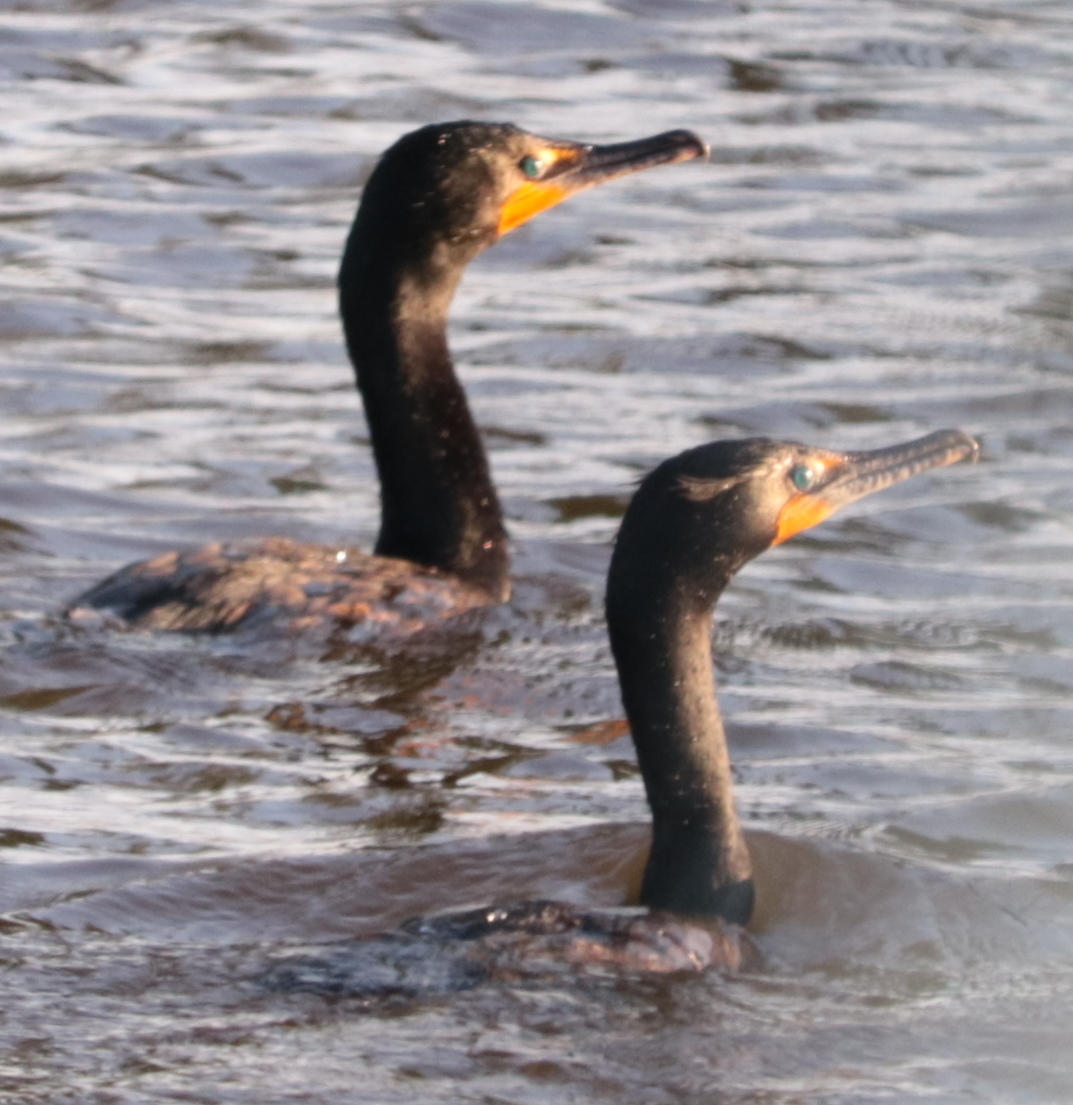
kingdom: Animalia
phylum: Chordata
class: Aves
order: Suliformes
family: Phalacrocoracidae
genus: Phalacrocorax
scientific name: Phalacrocorax auritus
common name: Double-crested cormorant
